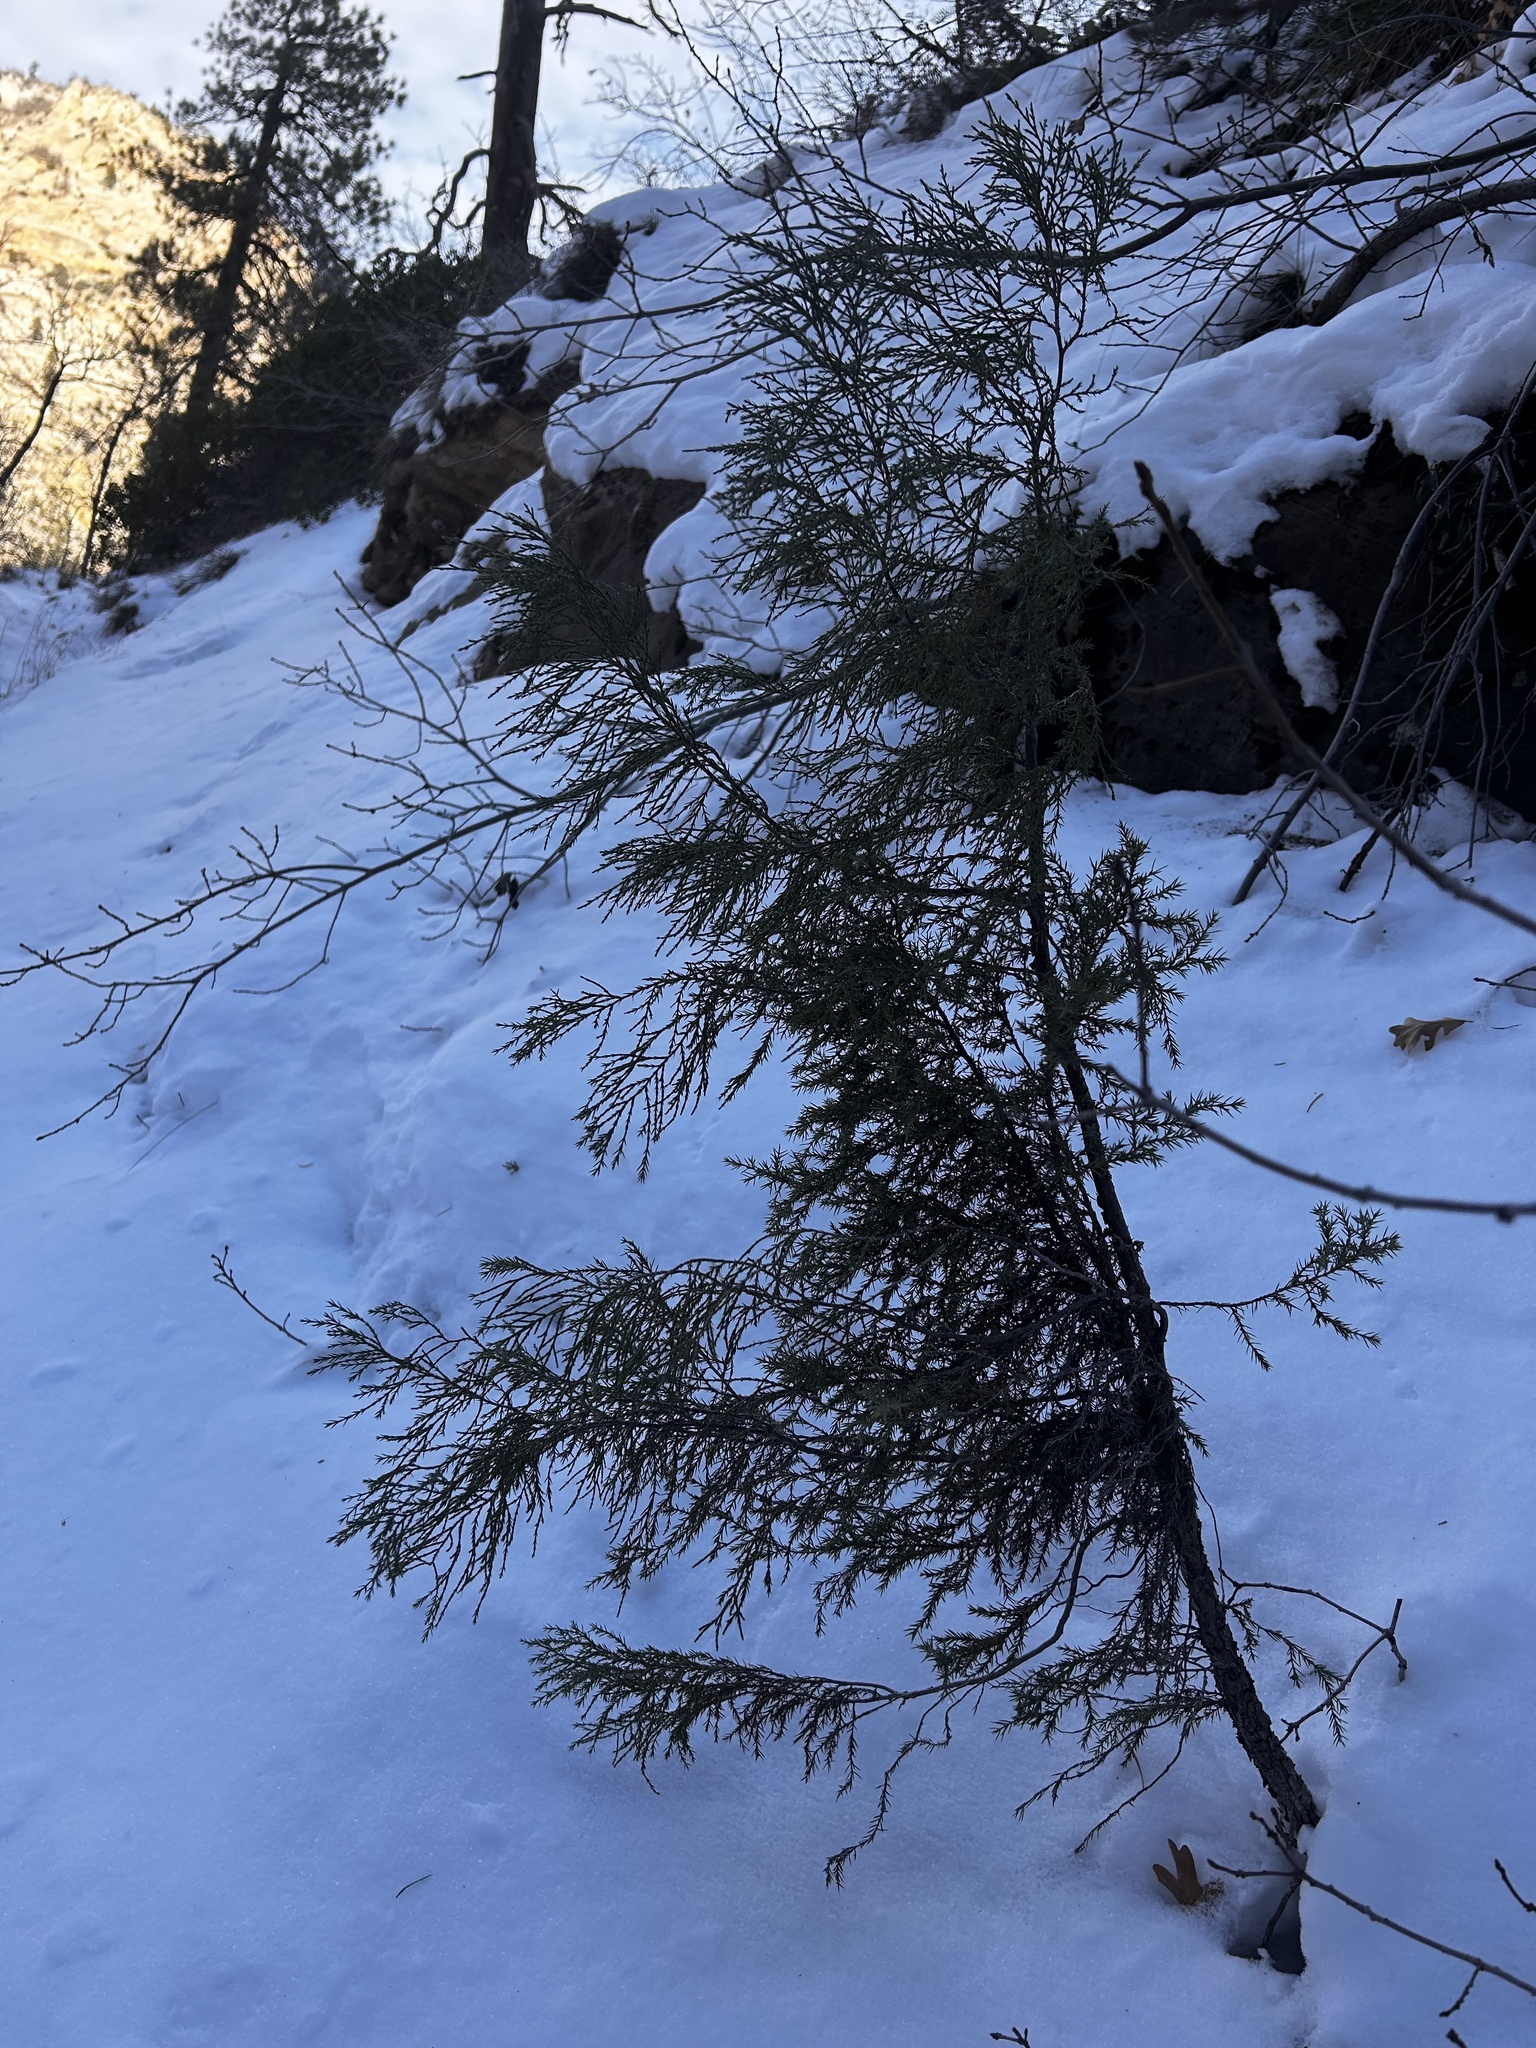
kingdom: Plantae
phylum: Tracheophyta
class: Pinopsida
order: Pinales
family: Cupressaceae
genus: Juniperus
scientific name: Juniperus scopulorum
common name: Rocky mountain juniper
